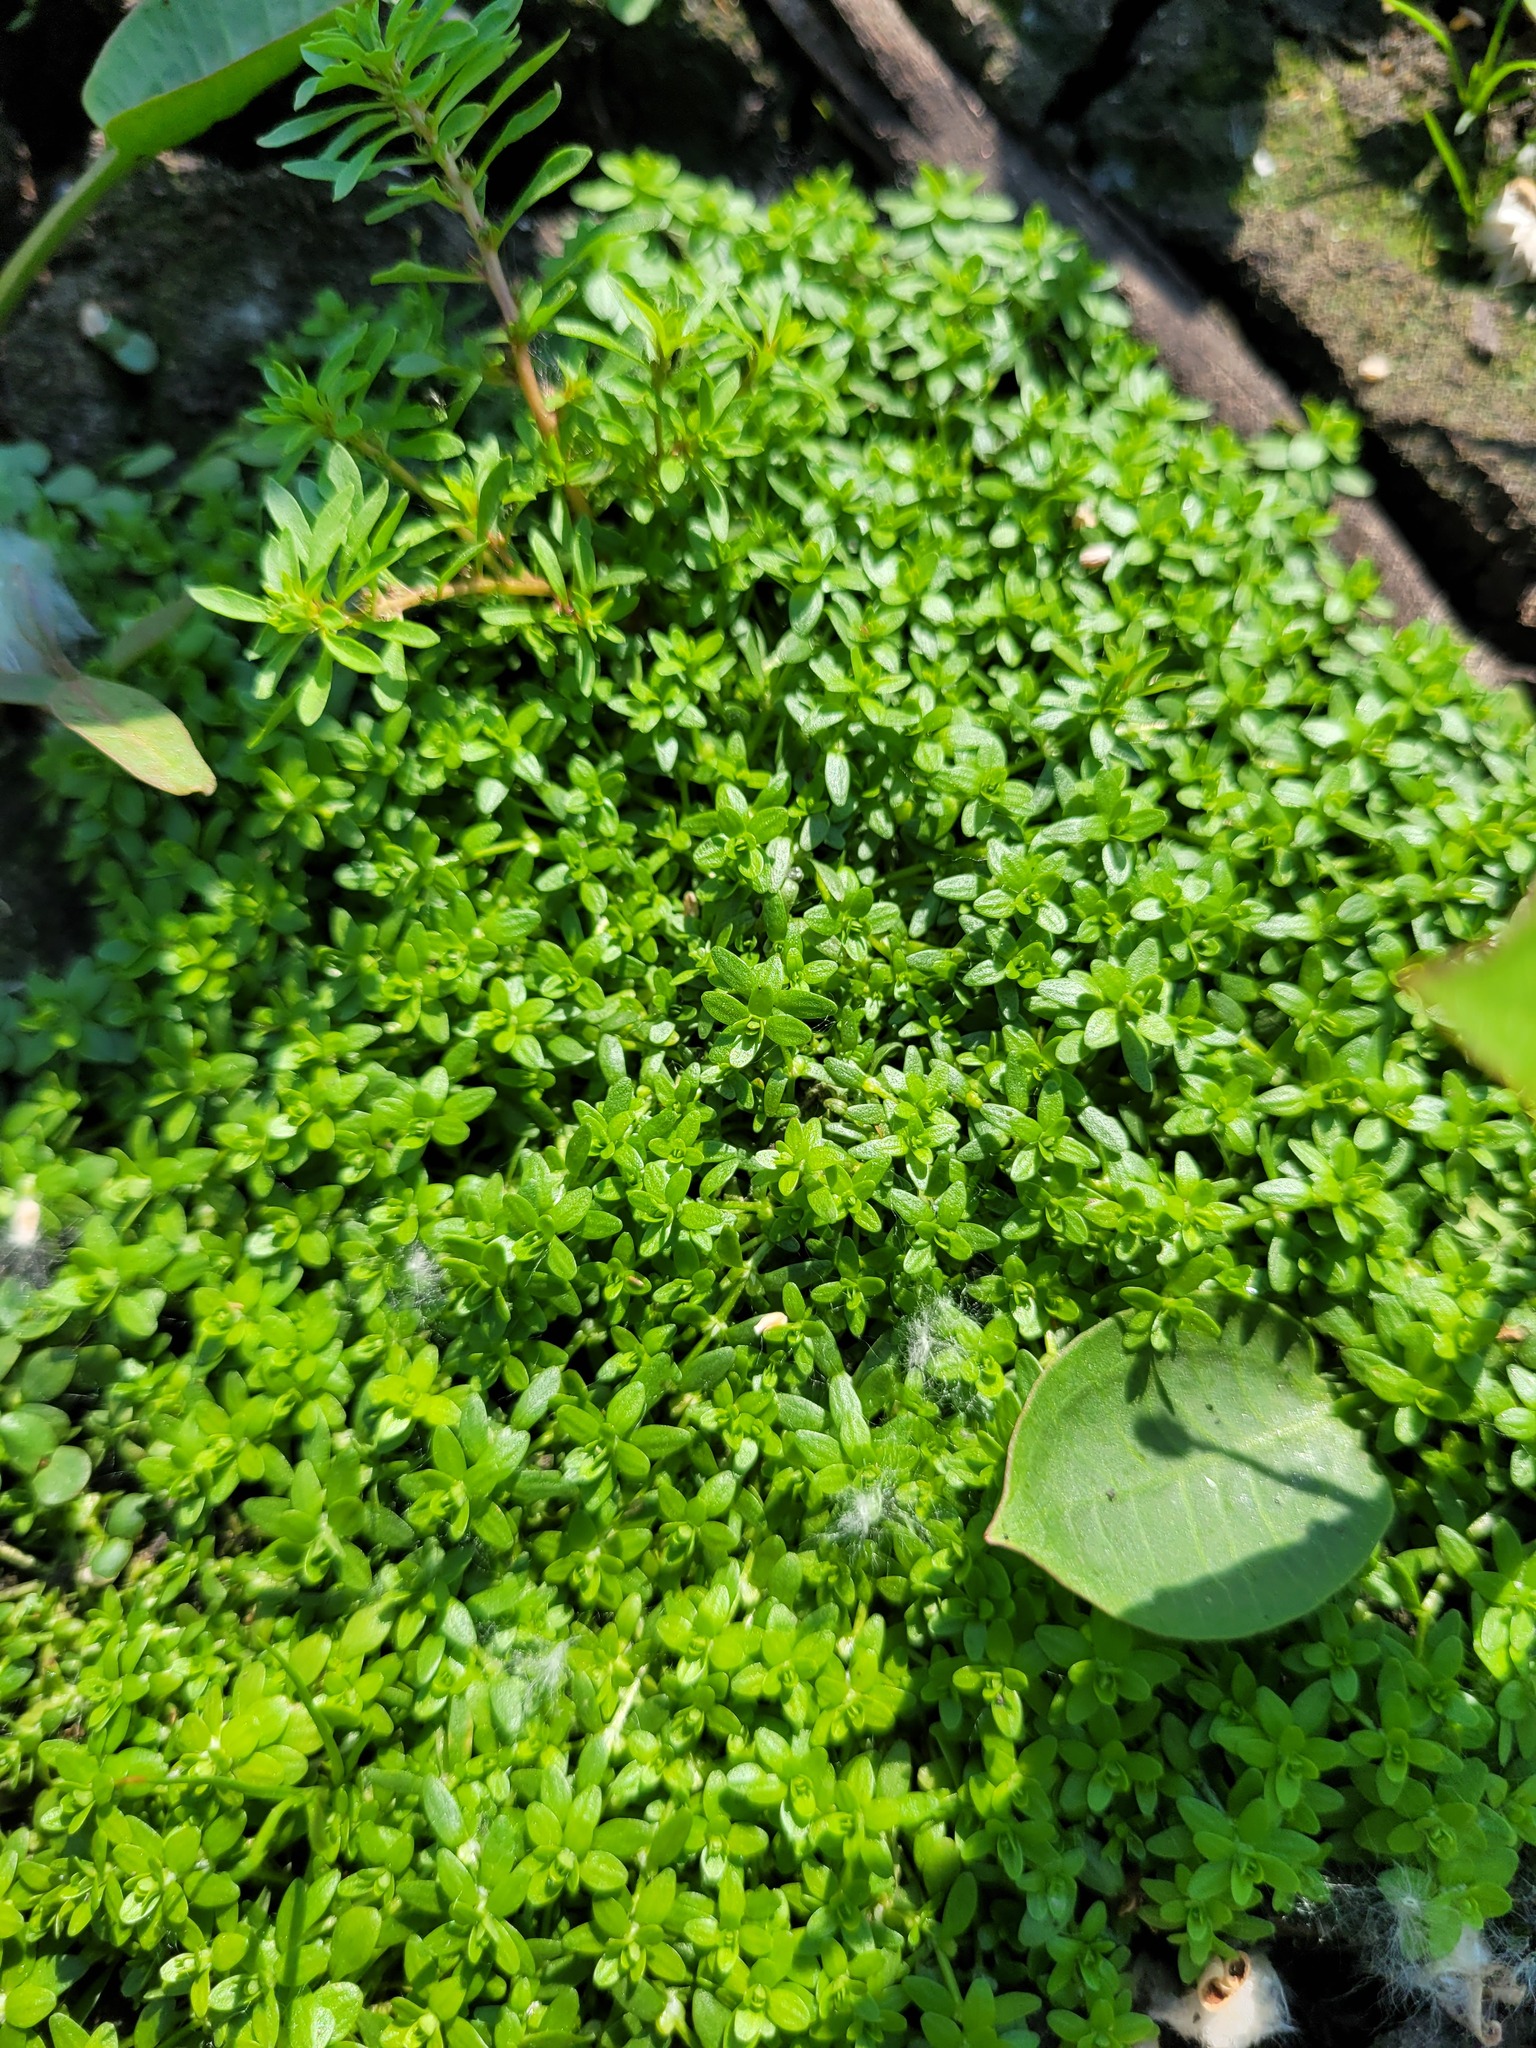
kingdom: Plantae
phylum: Tracheophyta
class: Magnoliopsida
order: Lamiales
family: Plantaginaceae
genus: Callitriche
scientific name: Callitriche palustris
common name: Spring water-starwort
